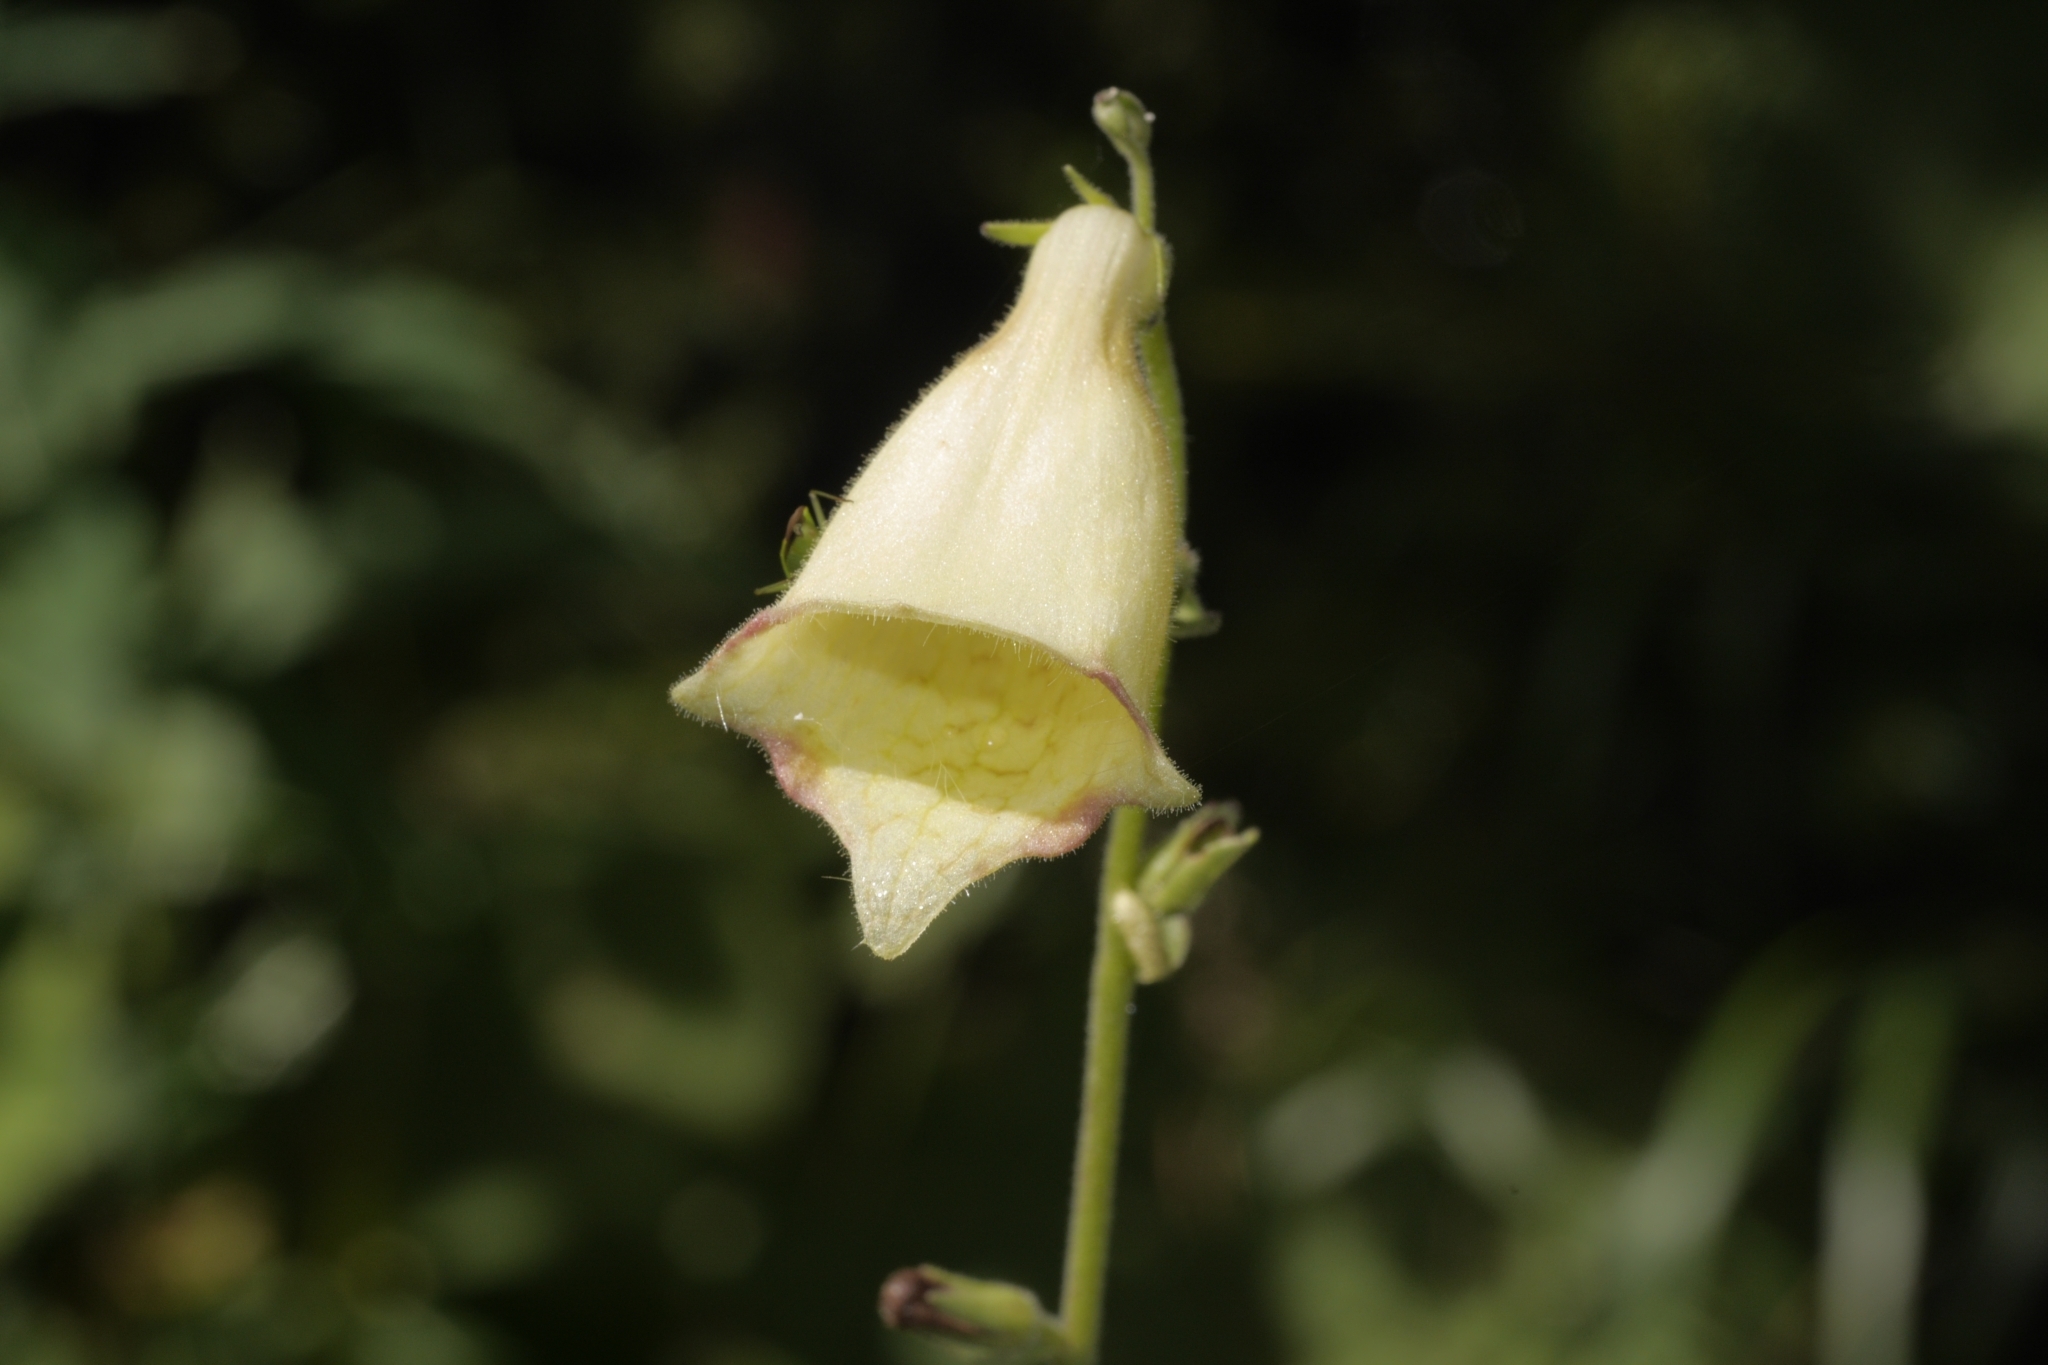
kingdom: Plantae
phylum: Tracheophyta
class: Magnoliopsida
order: Lamiales
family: Plantaginaceae
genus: Digitalis
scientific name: Digitalis grandiflora
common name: Yellow foxglove
